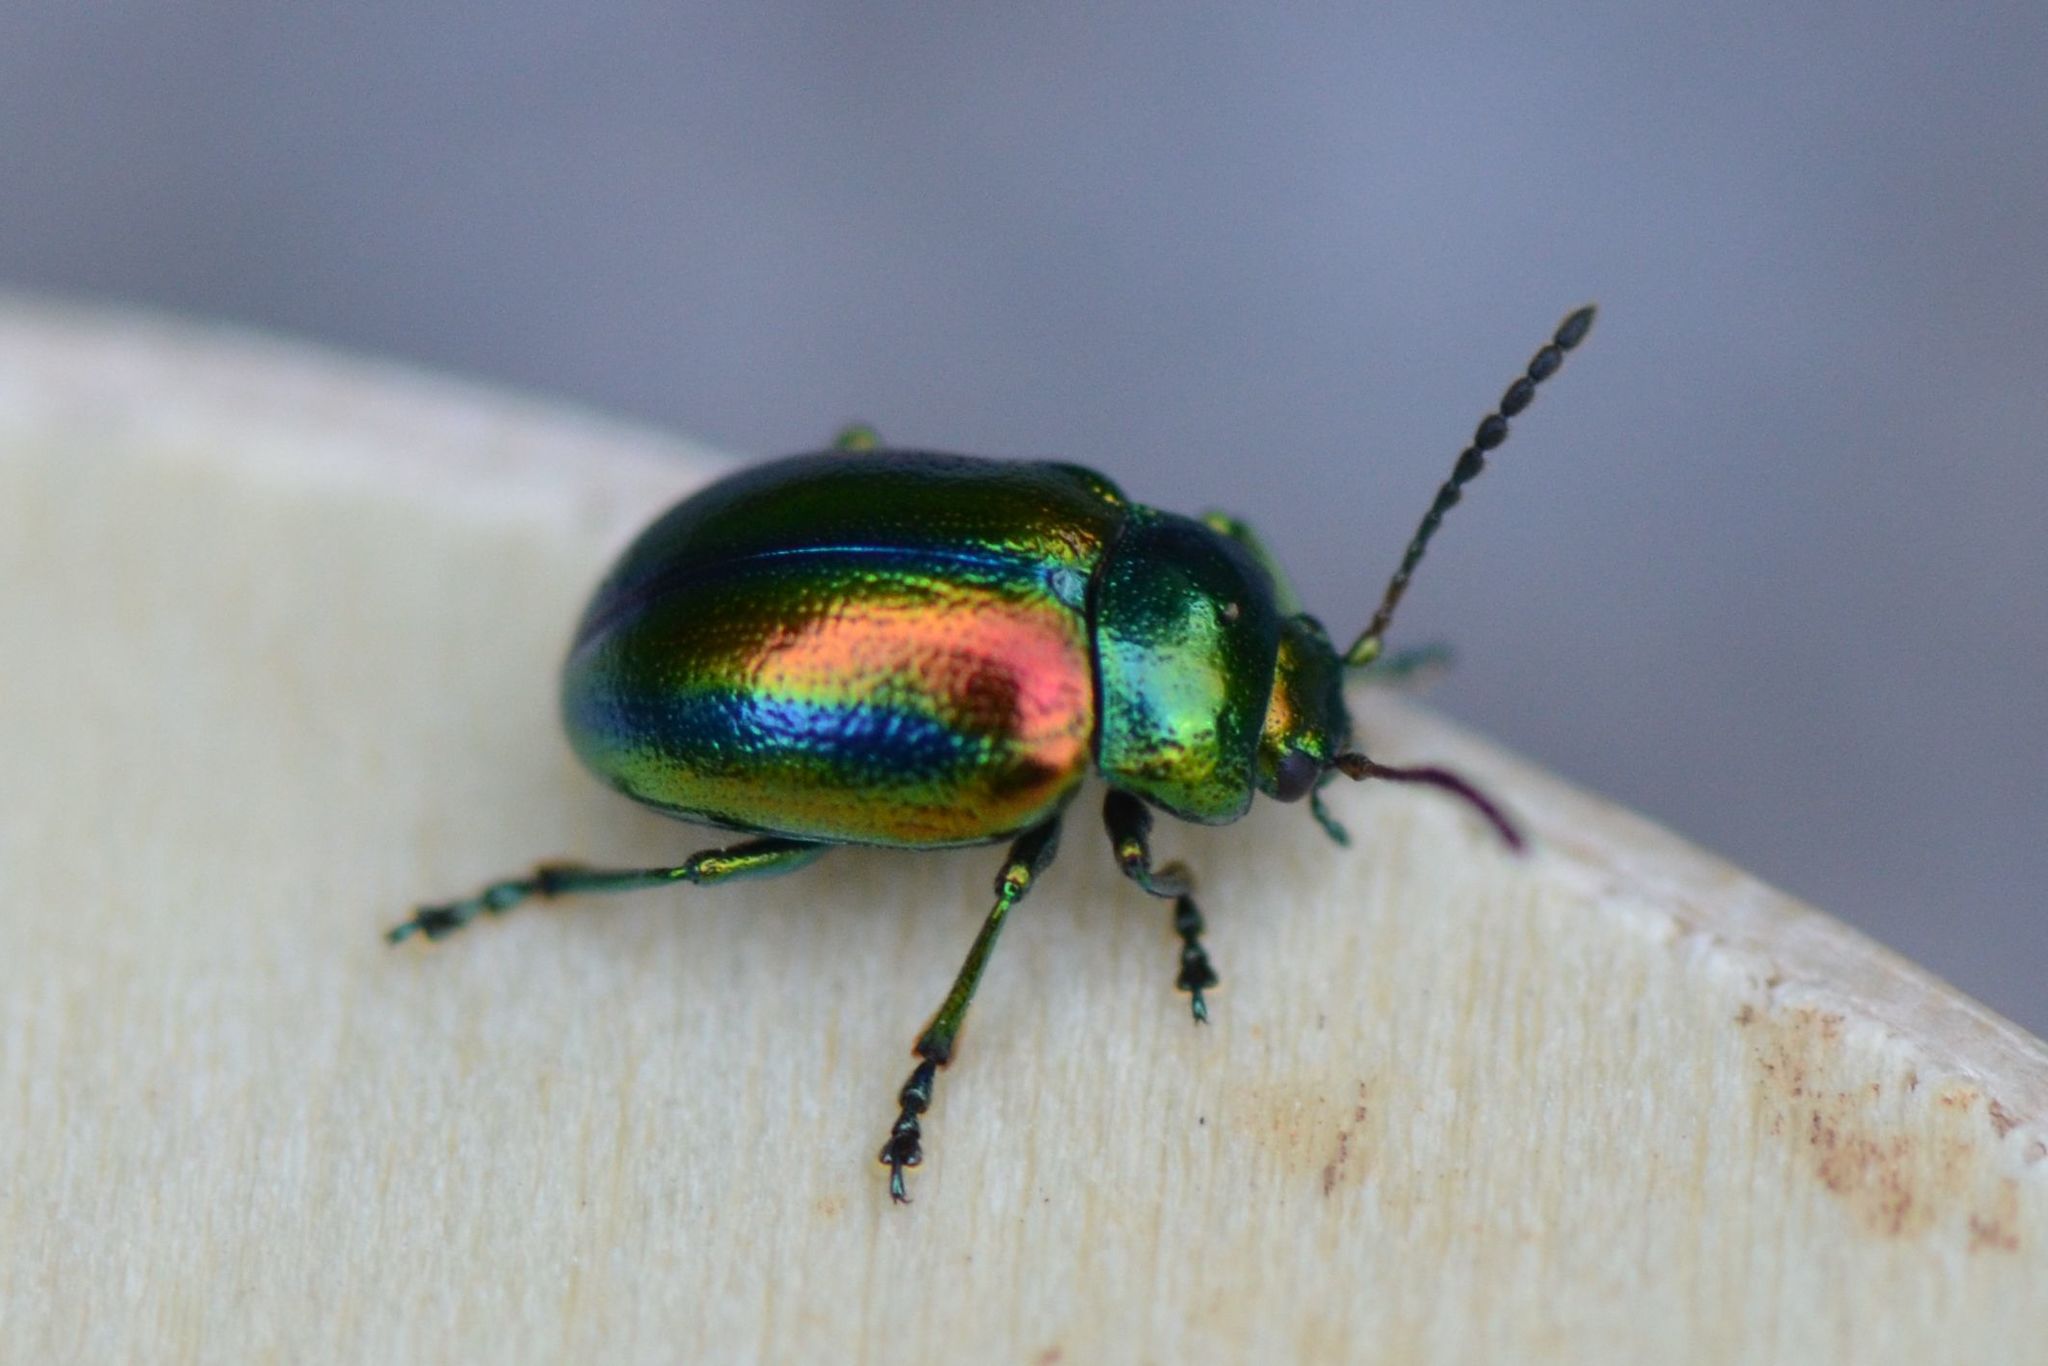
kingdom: Animalia
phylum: Arthropoda
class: Insecta
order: Coleoptera
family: Chrysomelidae
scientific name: Chrysomelidae
